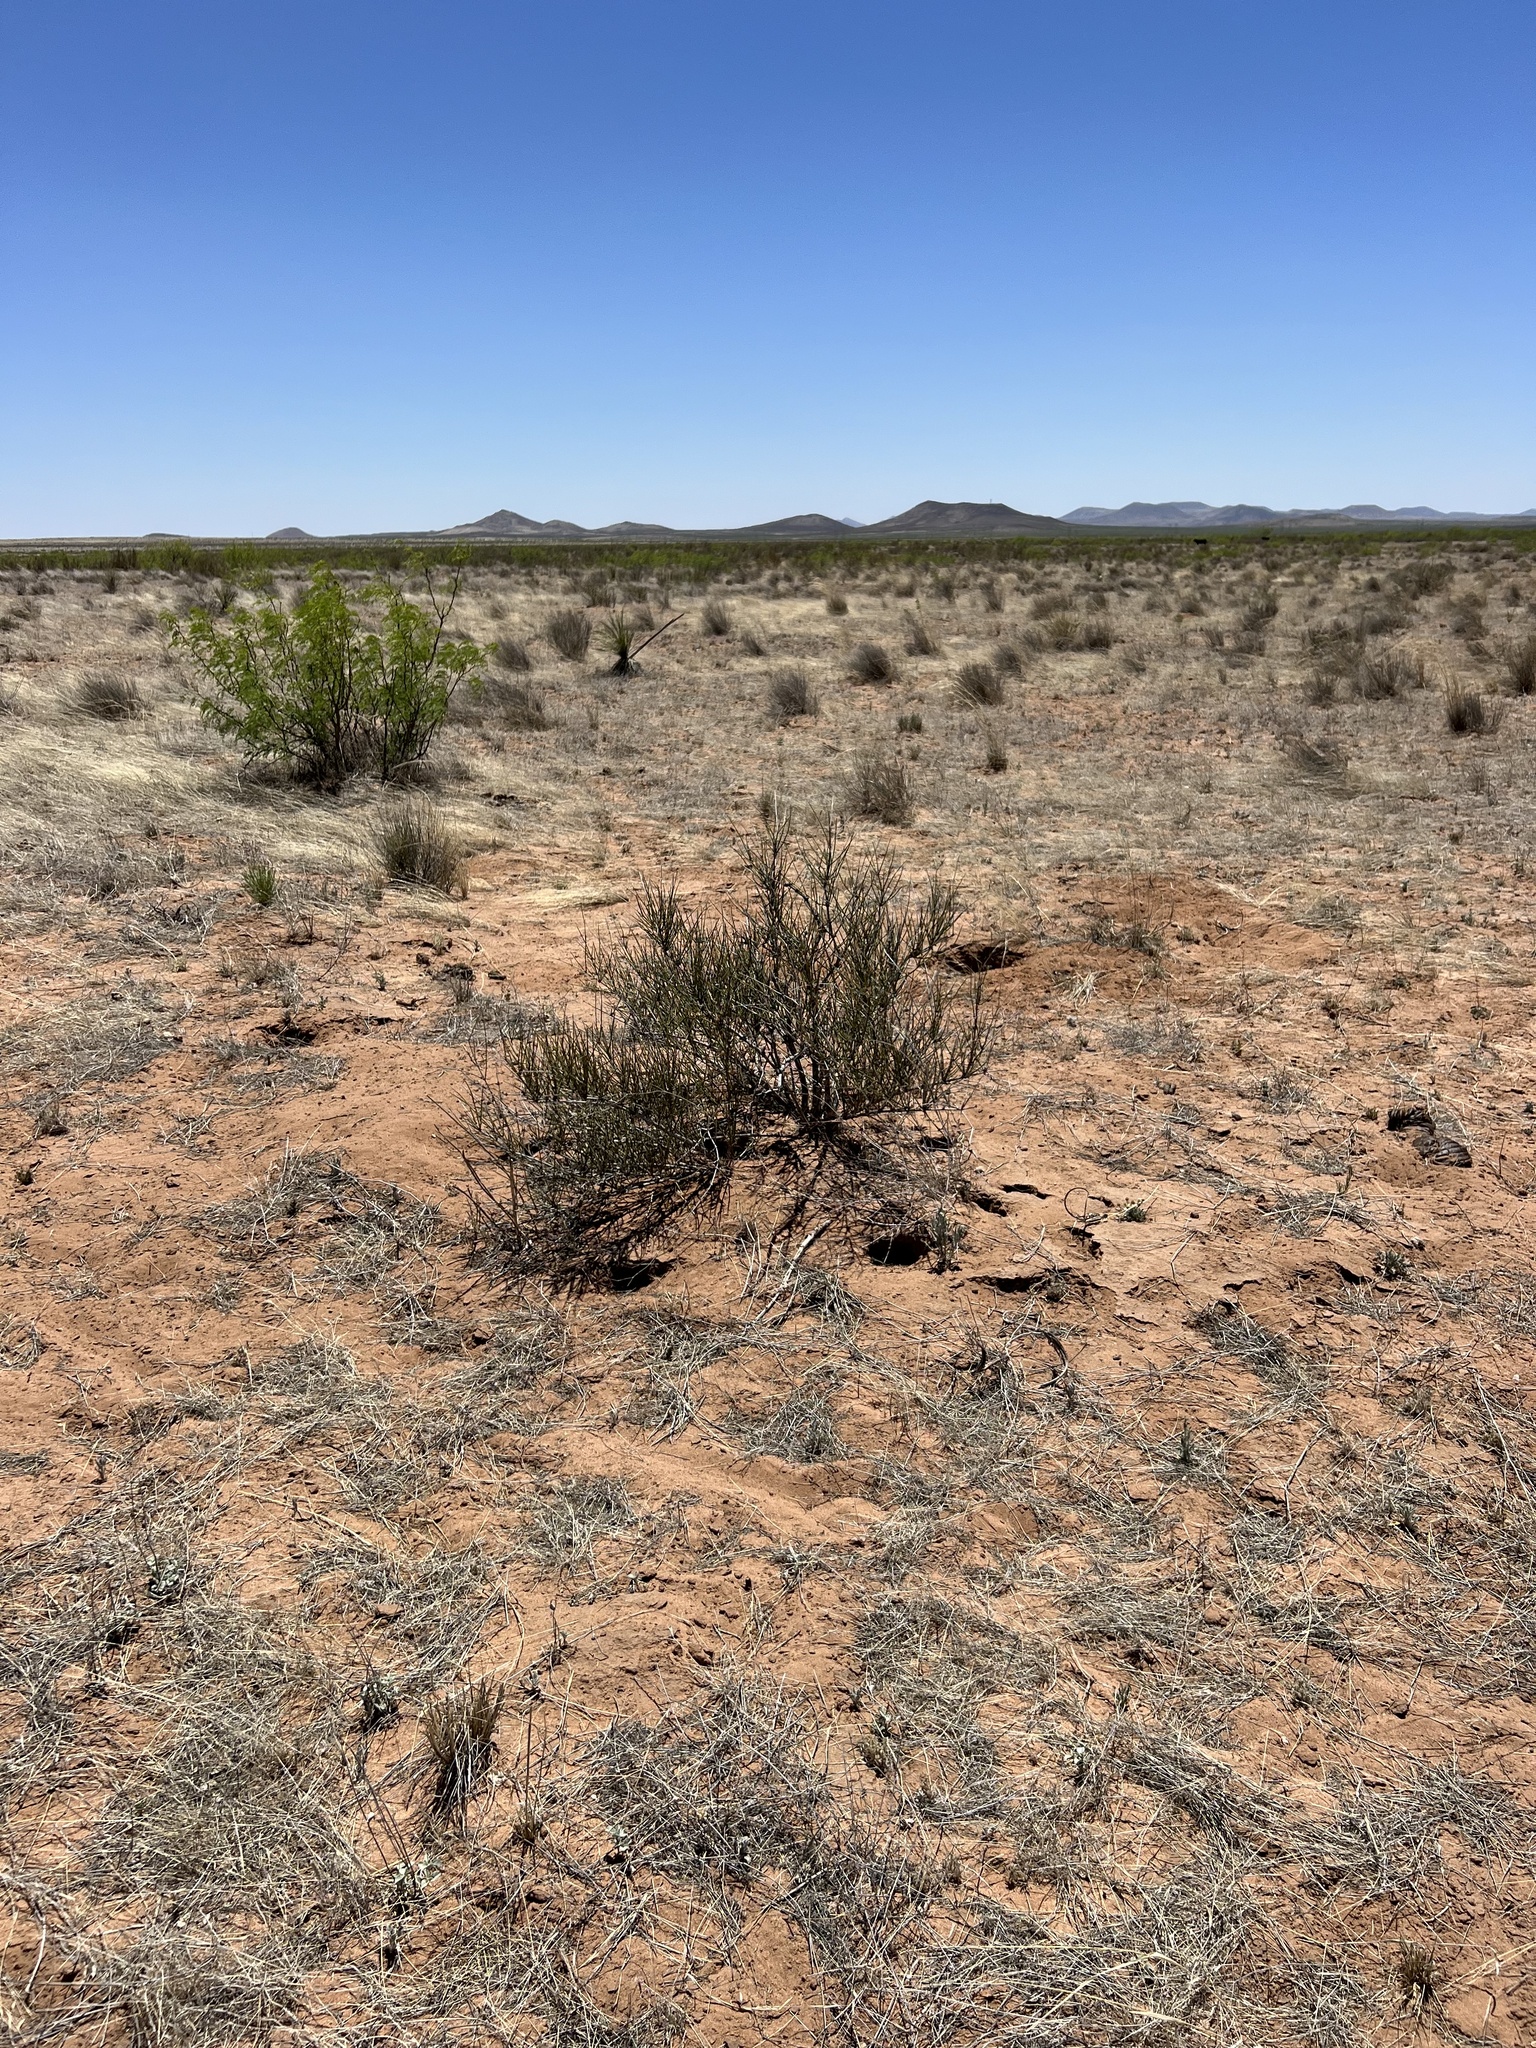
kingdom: Plantae
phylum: Tracheophyta
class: Gnetopsida
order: Ephedrales
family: Ephedraceae
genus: Ephedra
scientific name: Ephedra trifurca
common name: Mexican-tea
